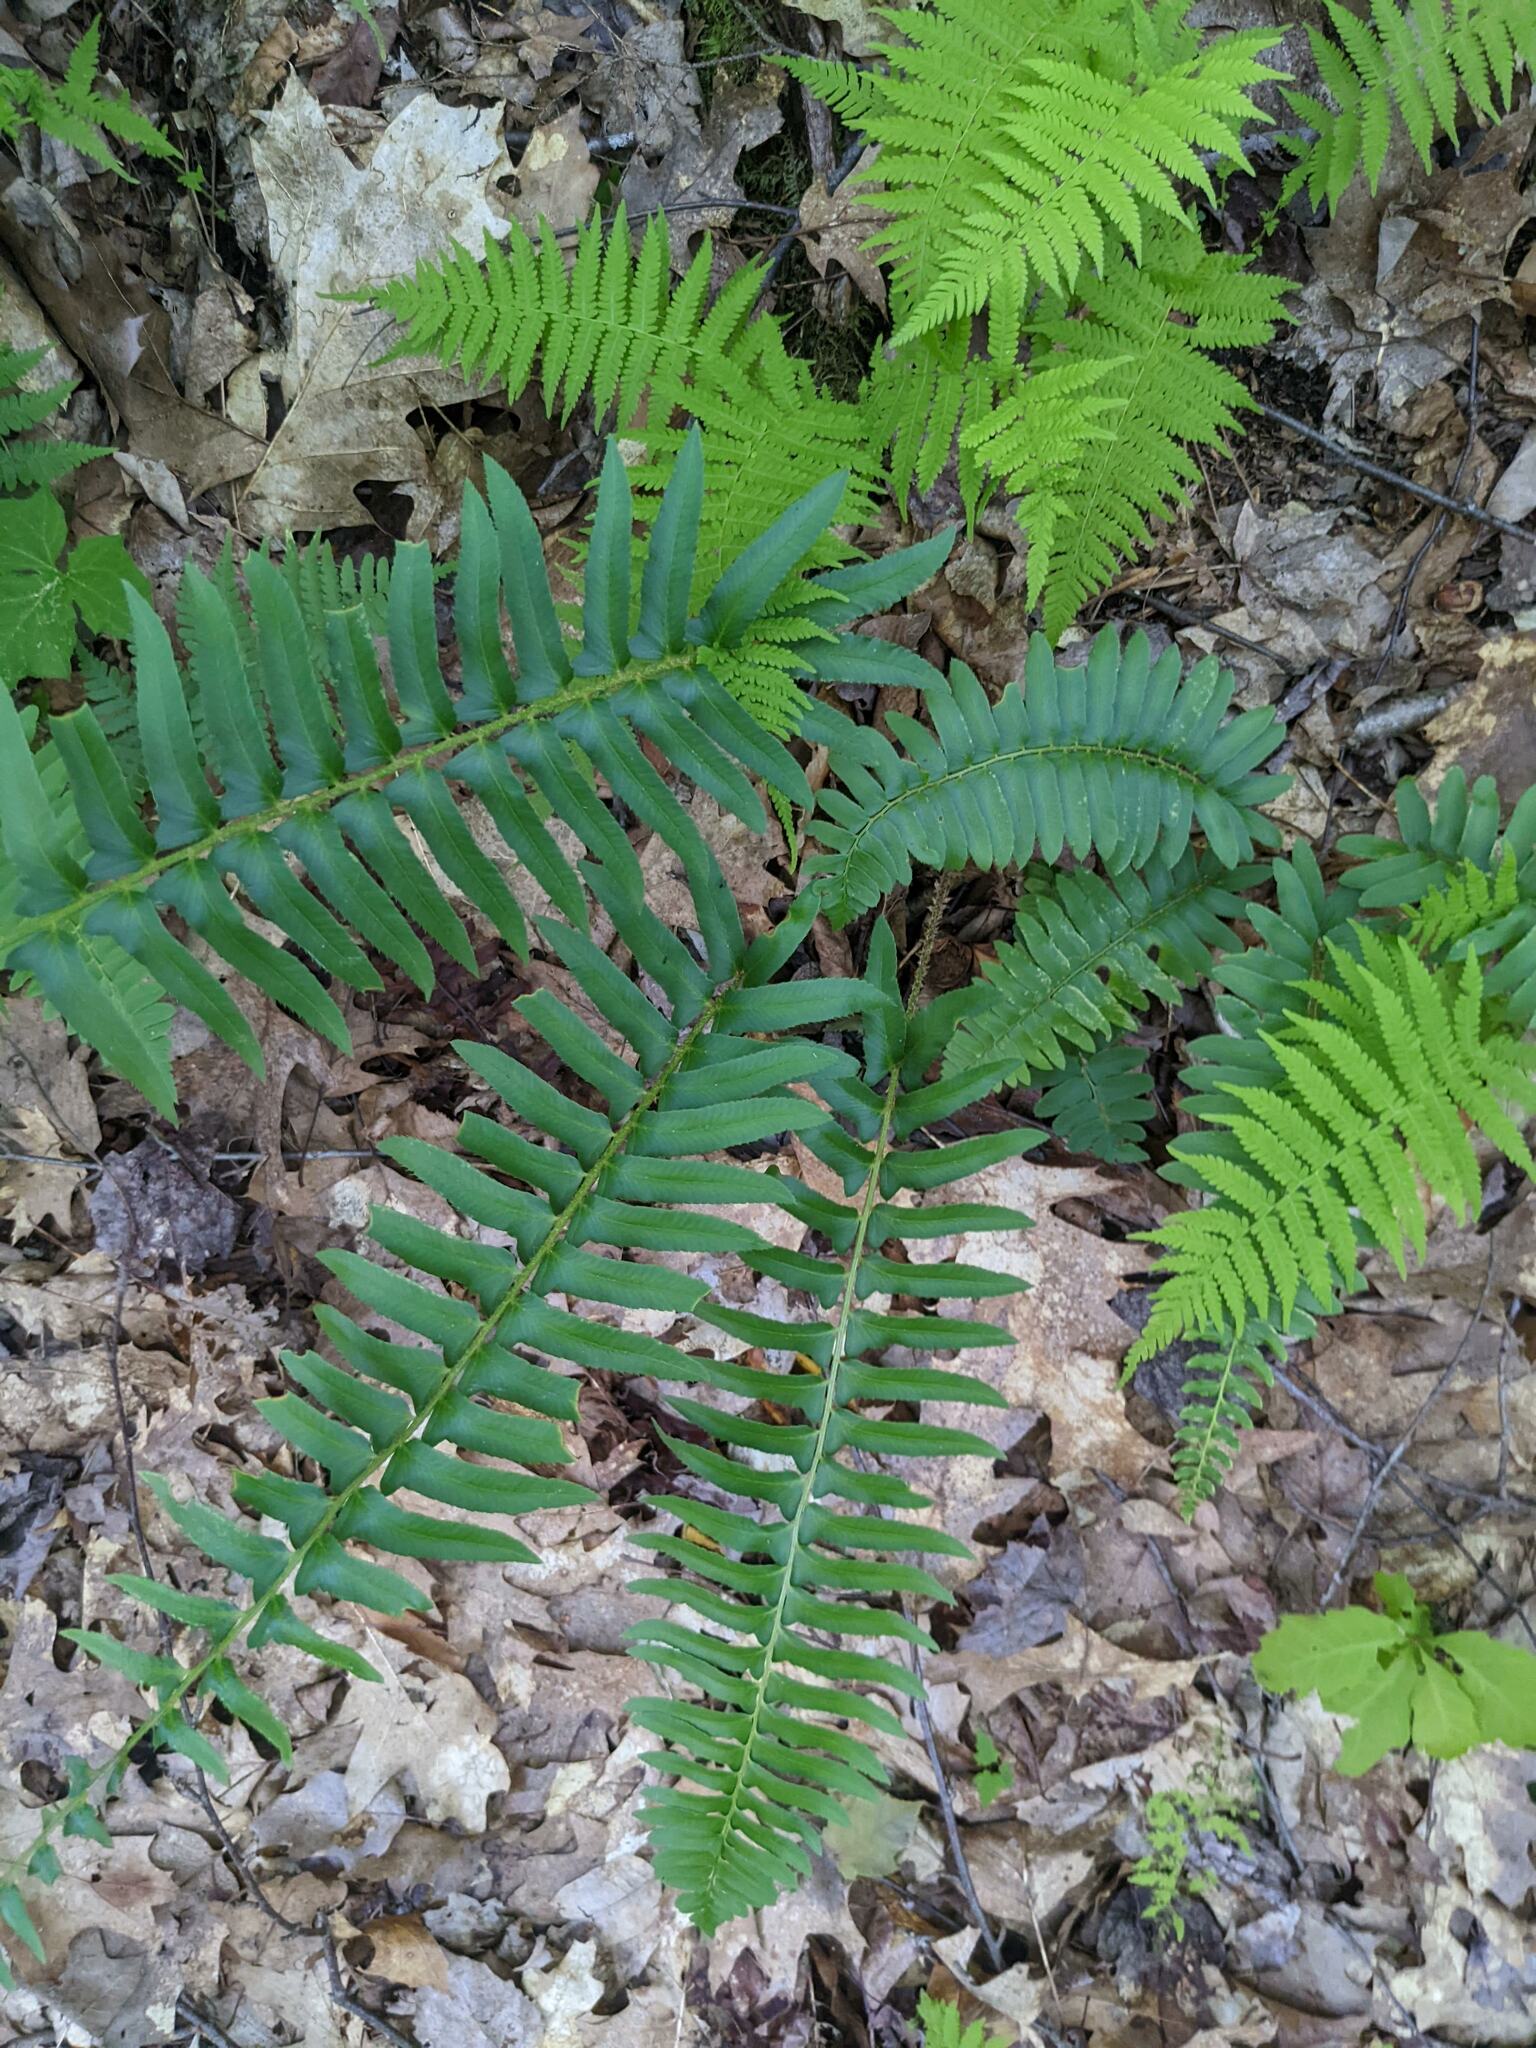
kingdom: Plantae
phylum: Tracheophyta
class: Polypodiopsida
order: Polypodiales
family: Dryopteridaceae
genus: Polystichum
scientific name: Polystichum acrostichoides
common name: Christmas fern
